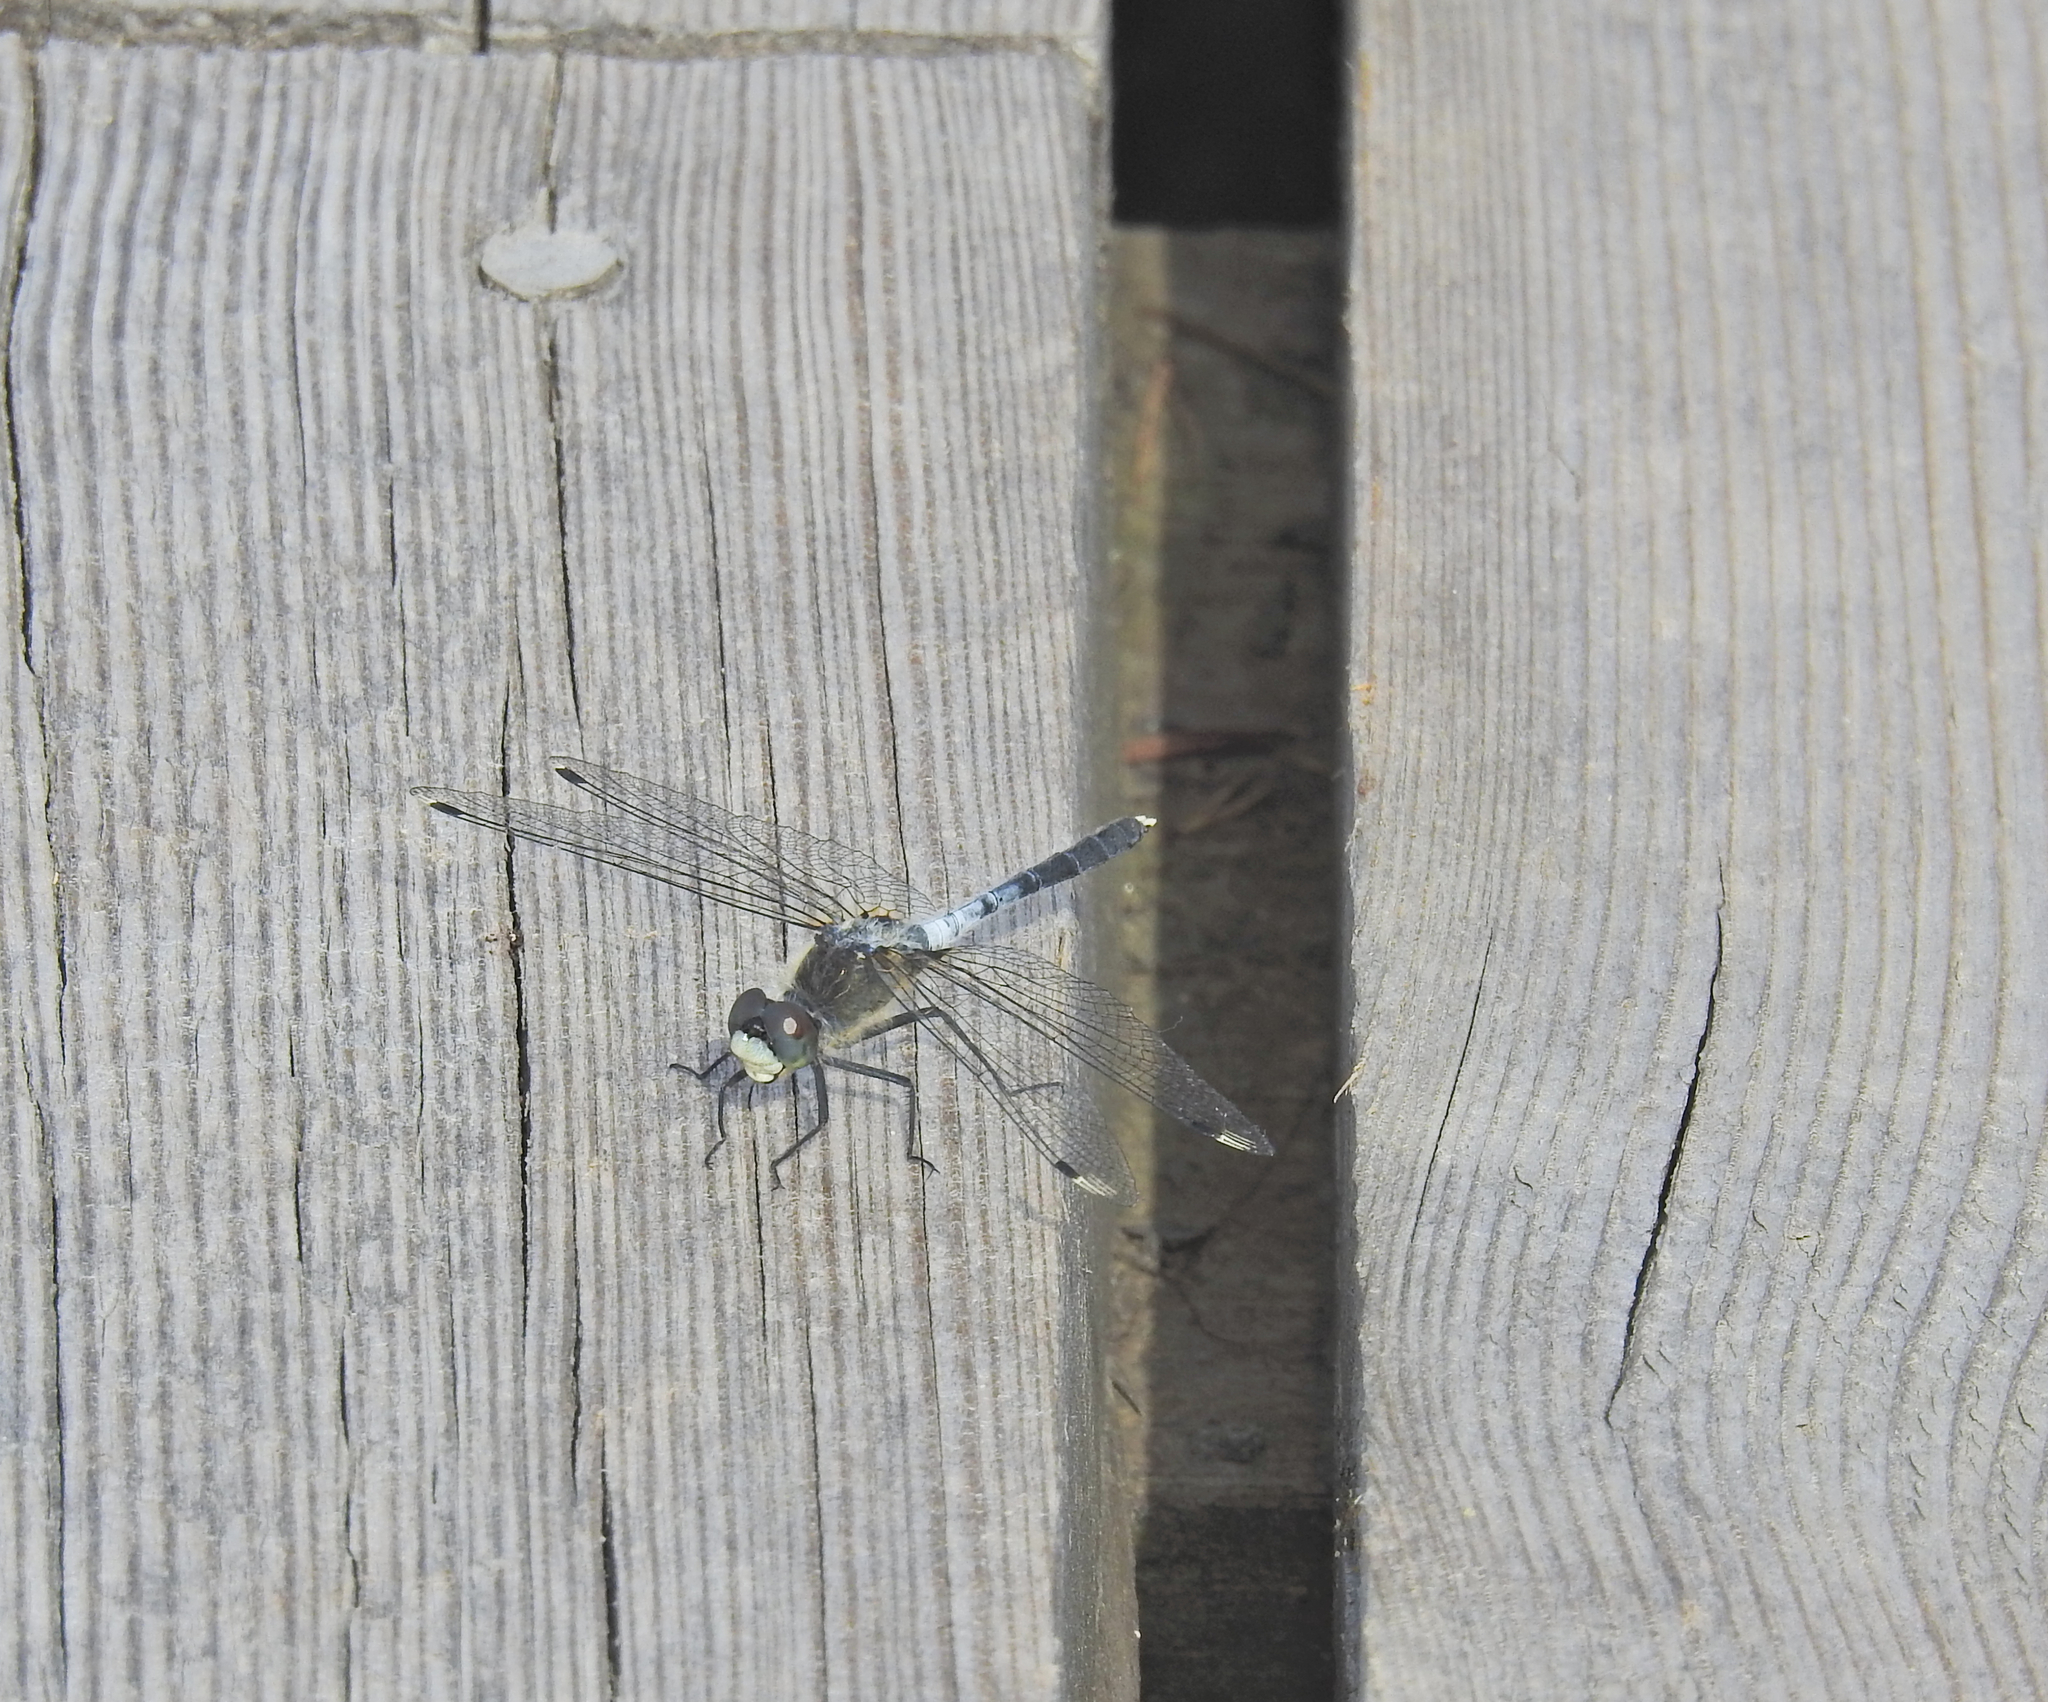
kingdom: Animalia
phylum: Arthropoda
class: Insecta
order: Odonata
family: Libellulidae
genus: Leucorrhinia
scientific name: Leucorrhinia albifrons
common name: Dark whiteface
